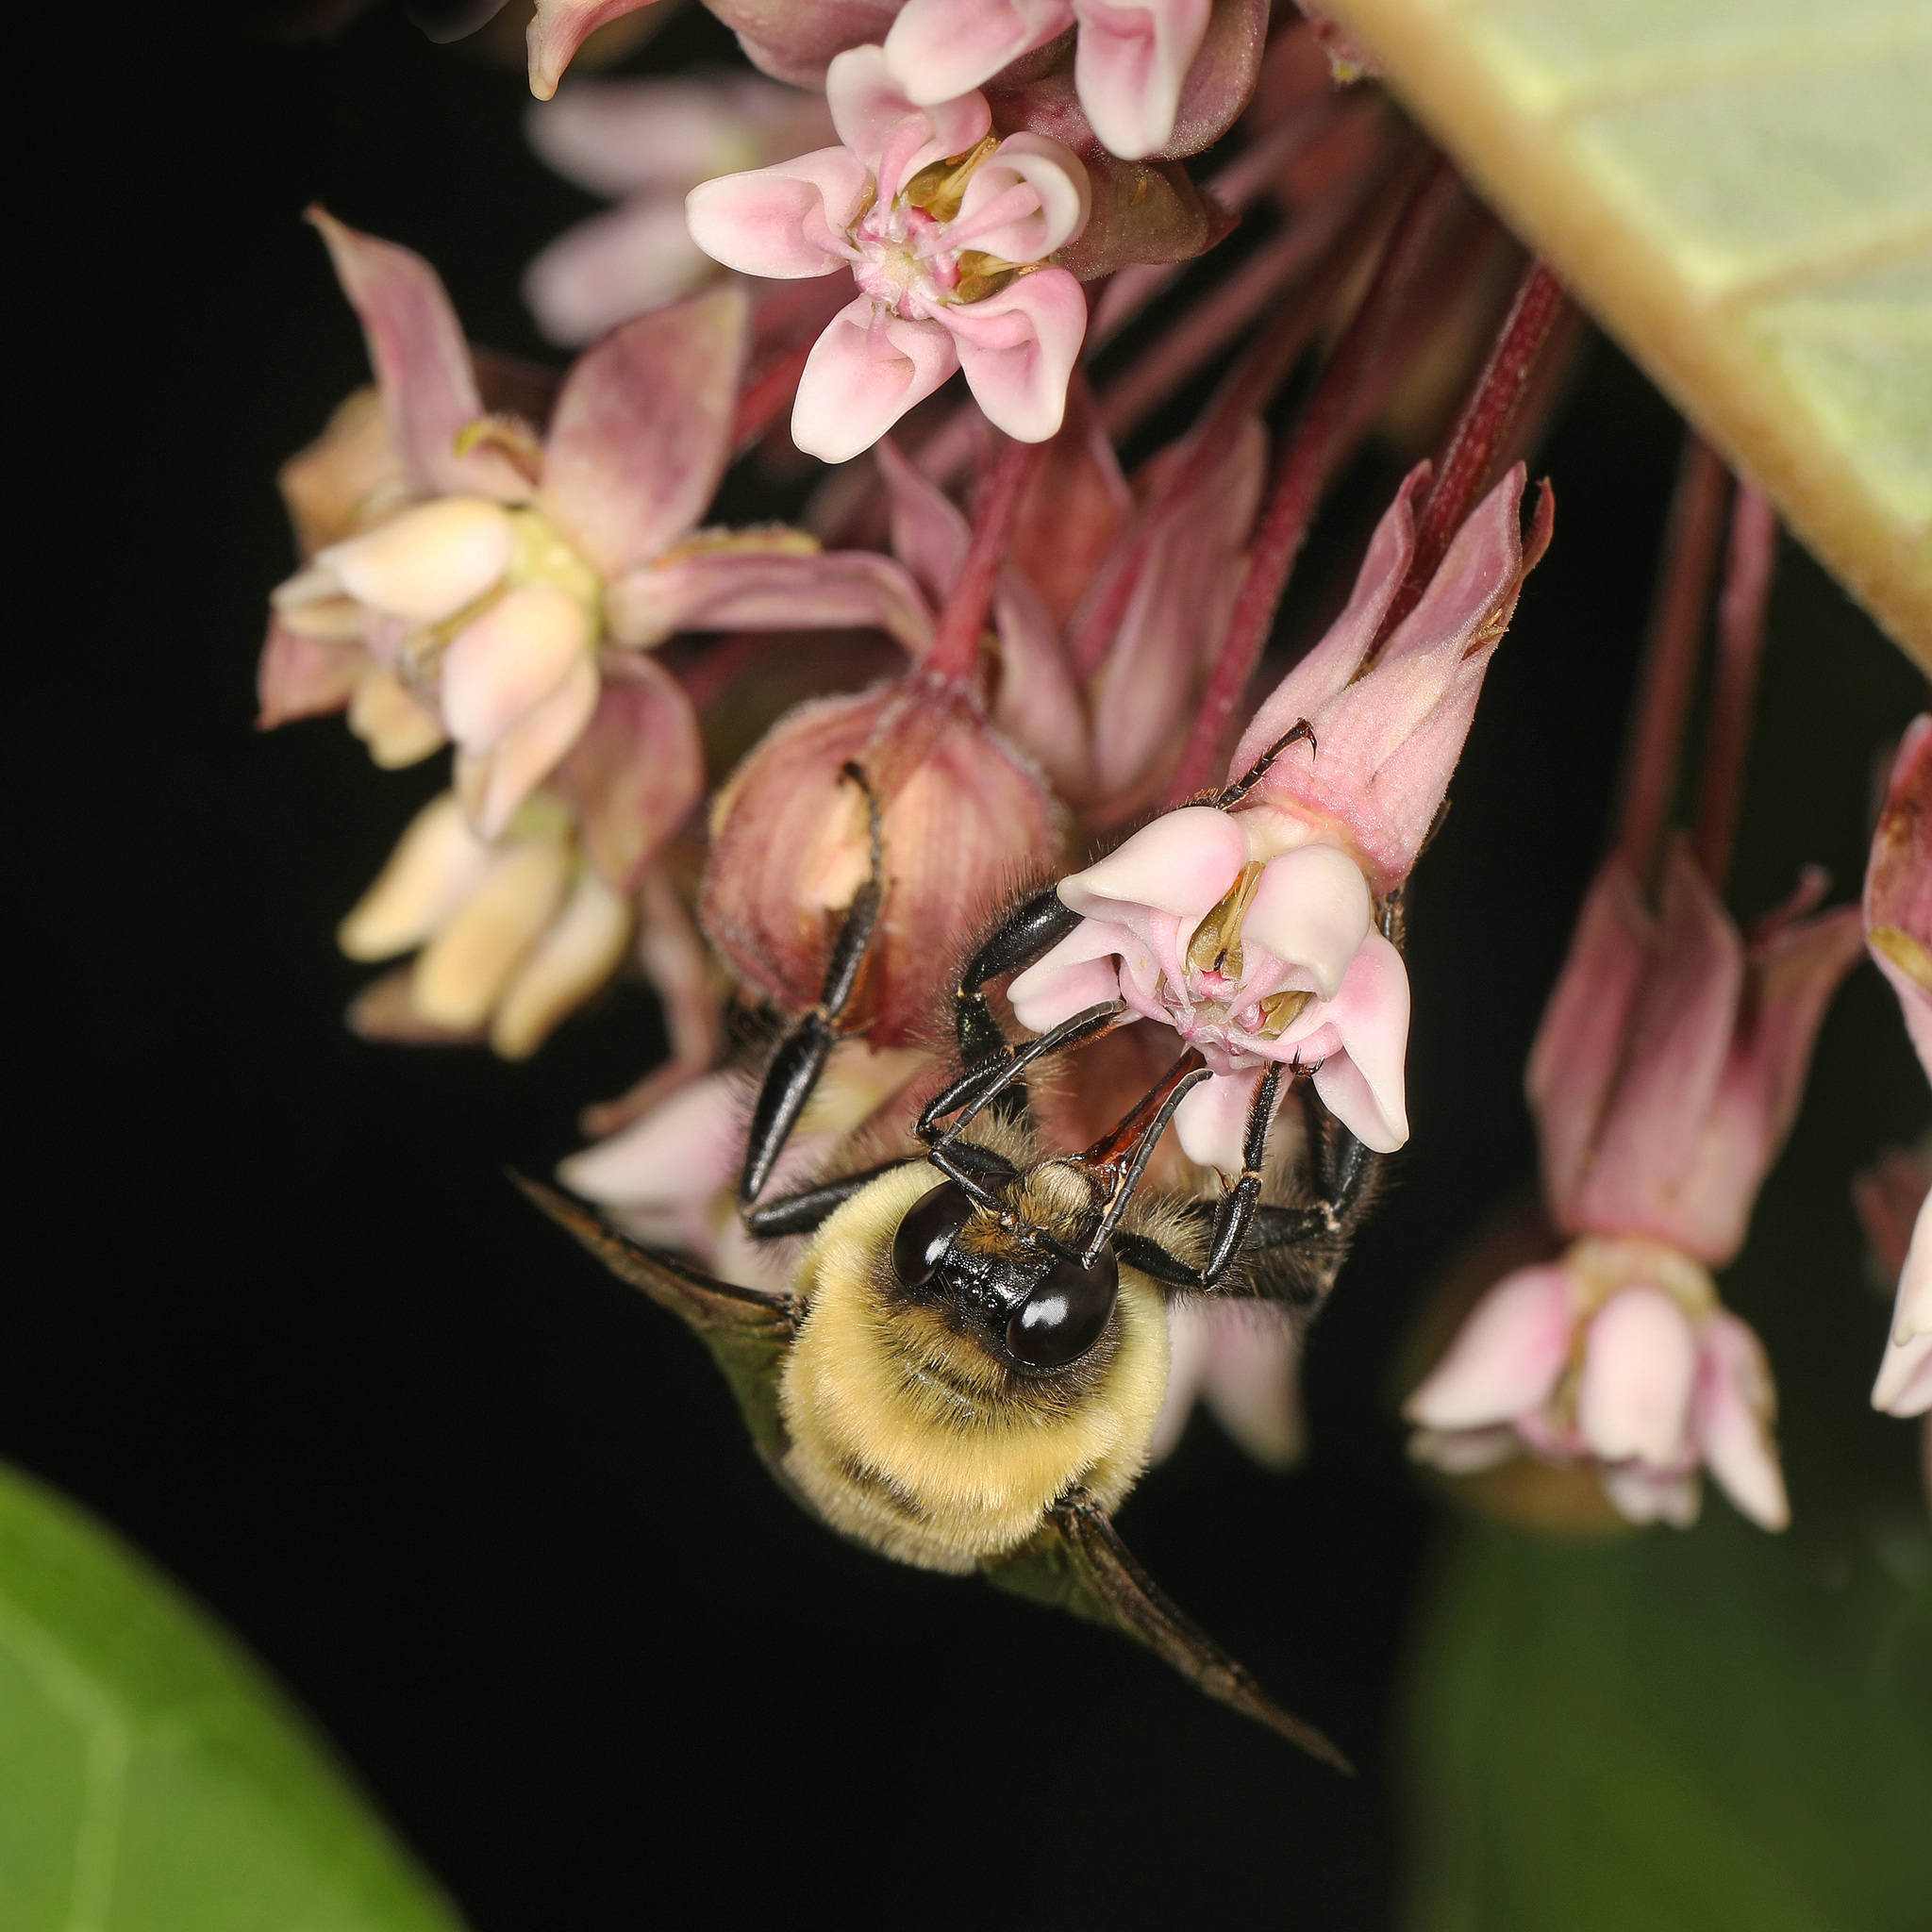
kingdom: Animalia
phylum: Arthropoda
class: Insecta
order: Hymenoptera
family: Apidae
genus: Bombus
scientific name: Bombus griseocollis
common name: Brown-belted bumble bee
